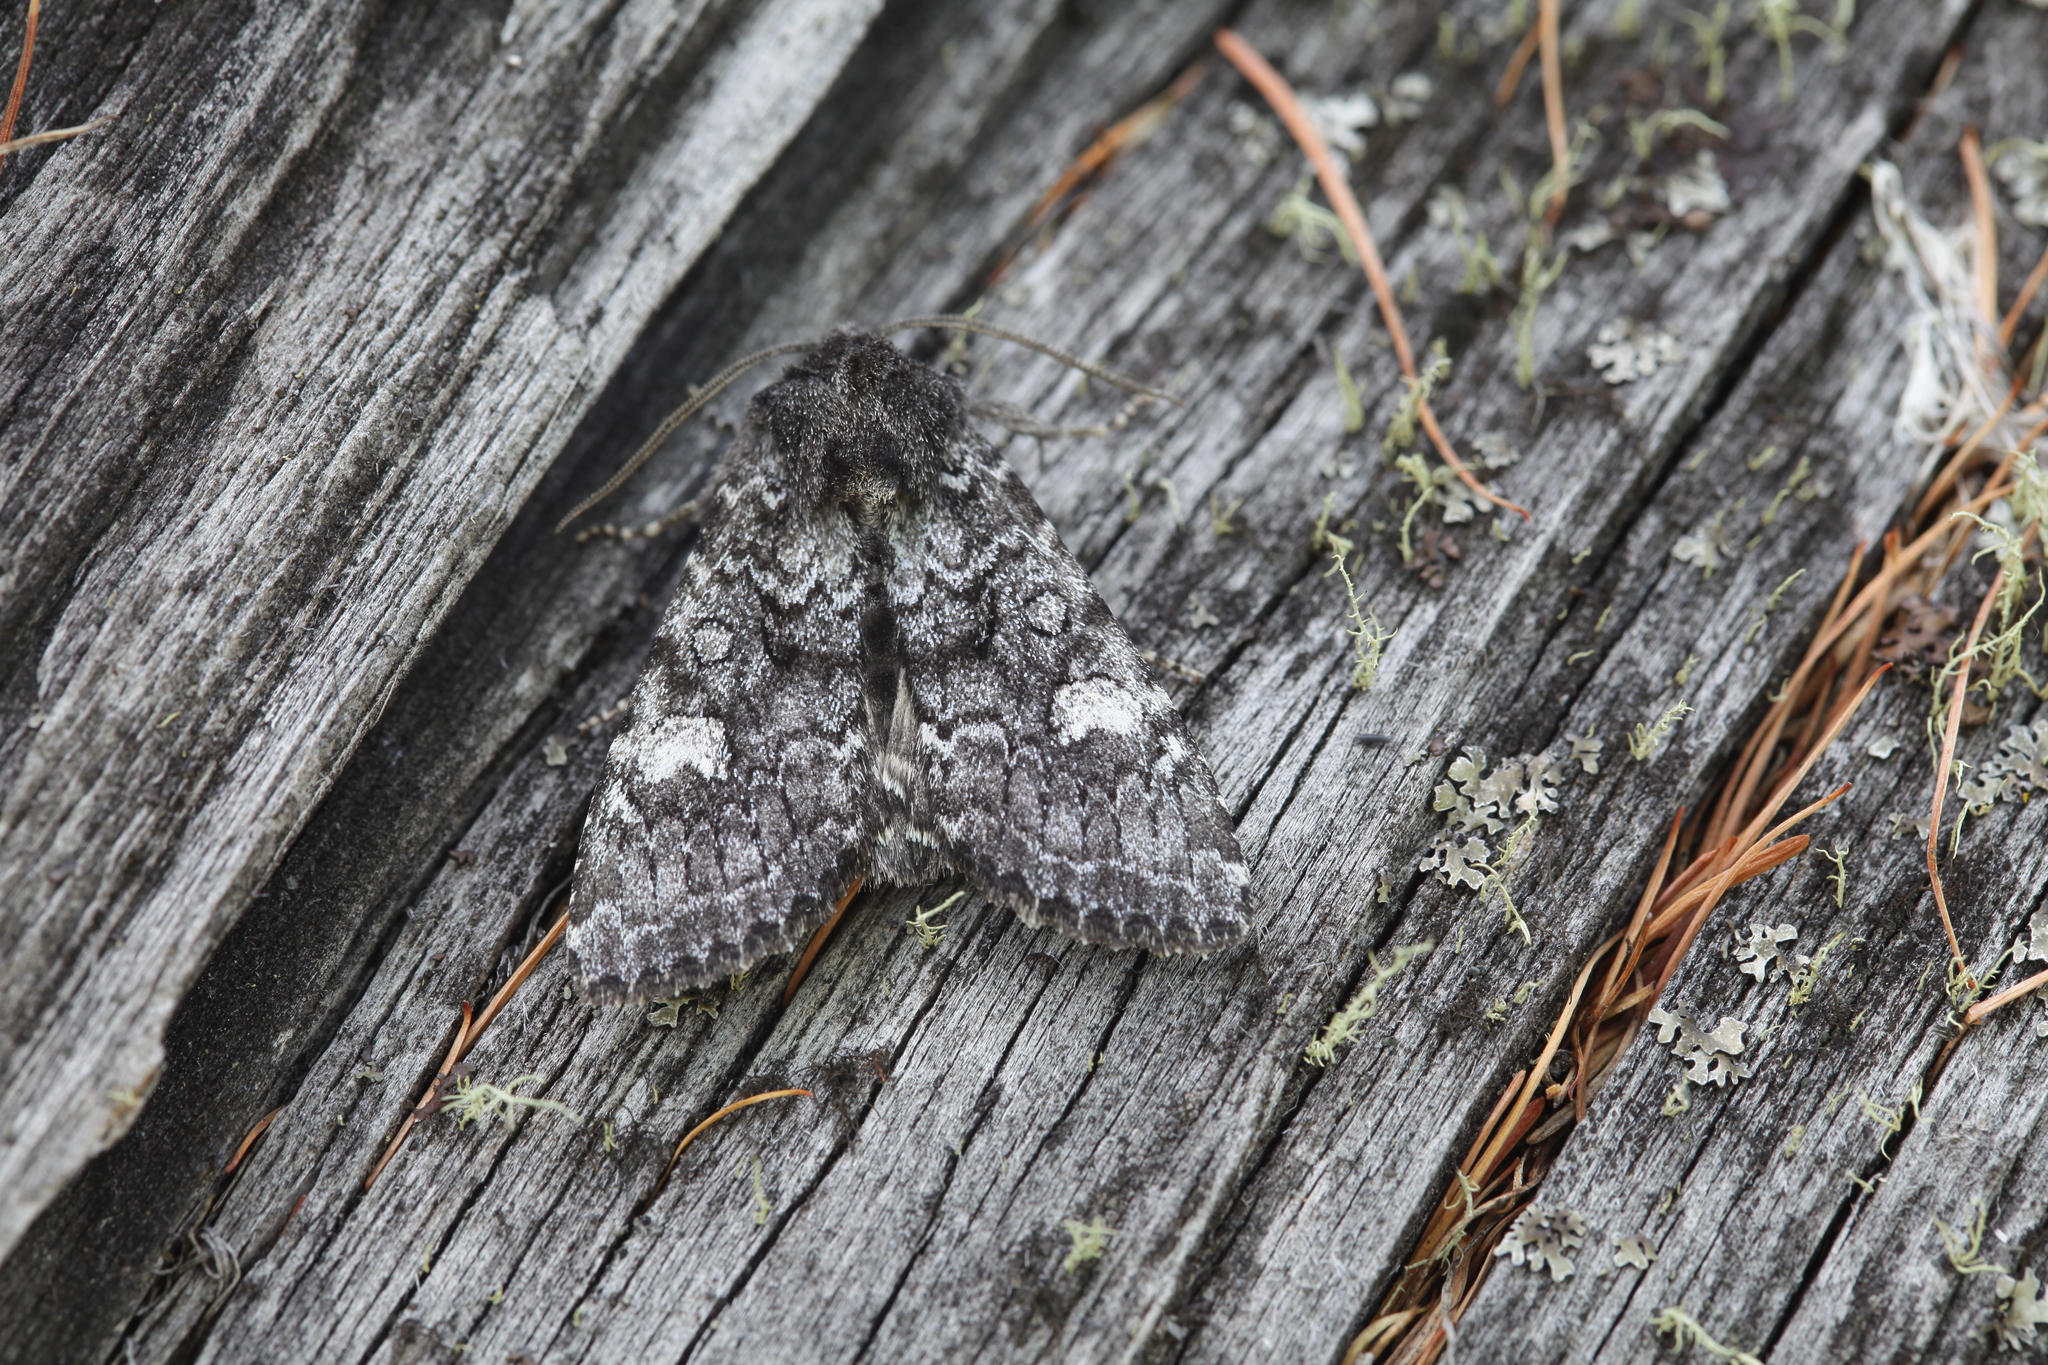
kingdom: Animalia
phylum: Arthropoda
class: Insecta
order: Lepidoptera
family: Noctuidae
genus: Polia
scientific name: Polia malchani
